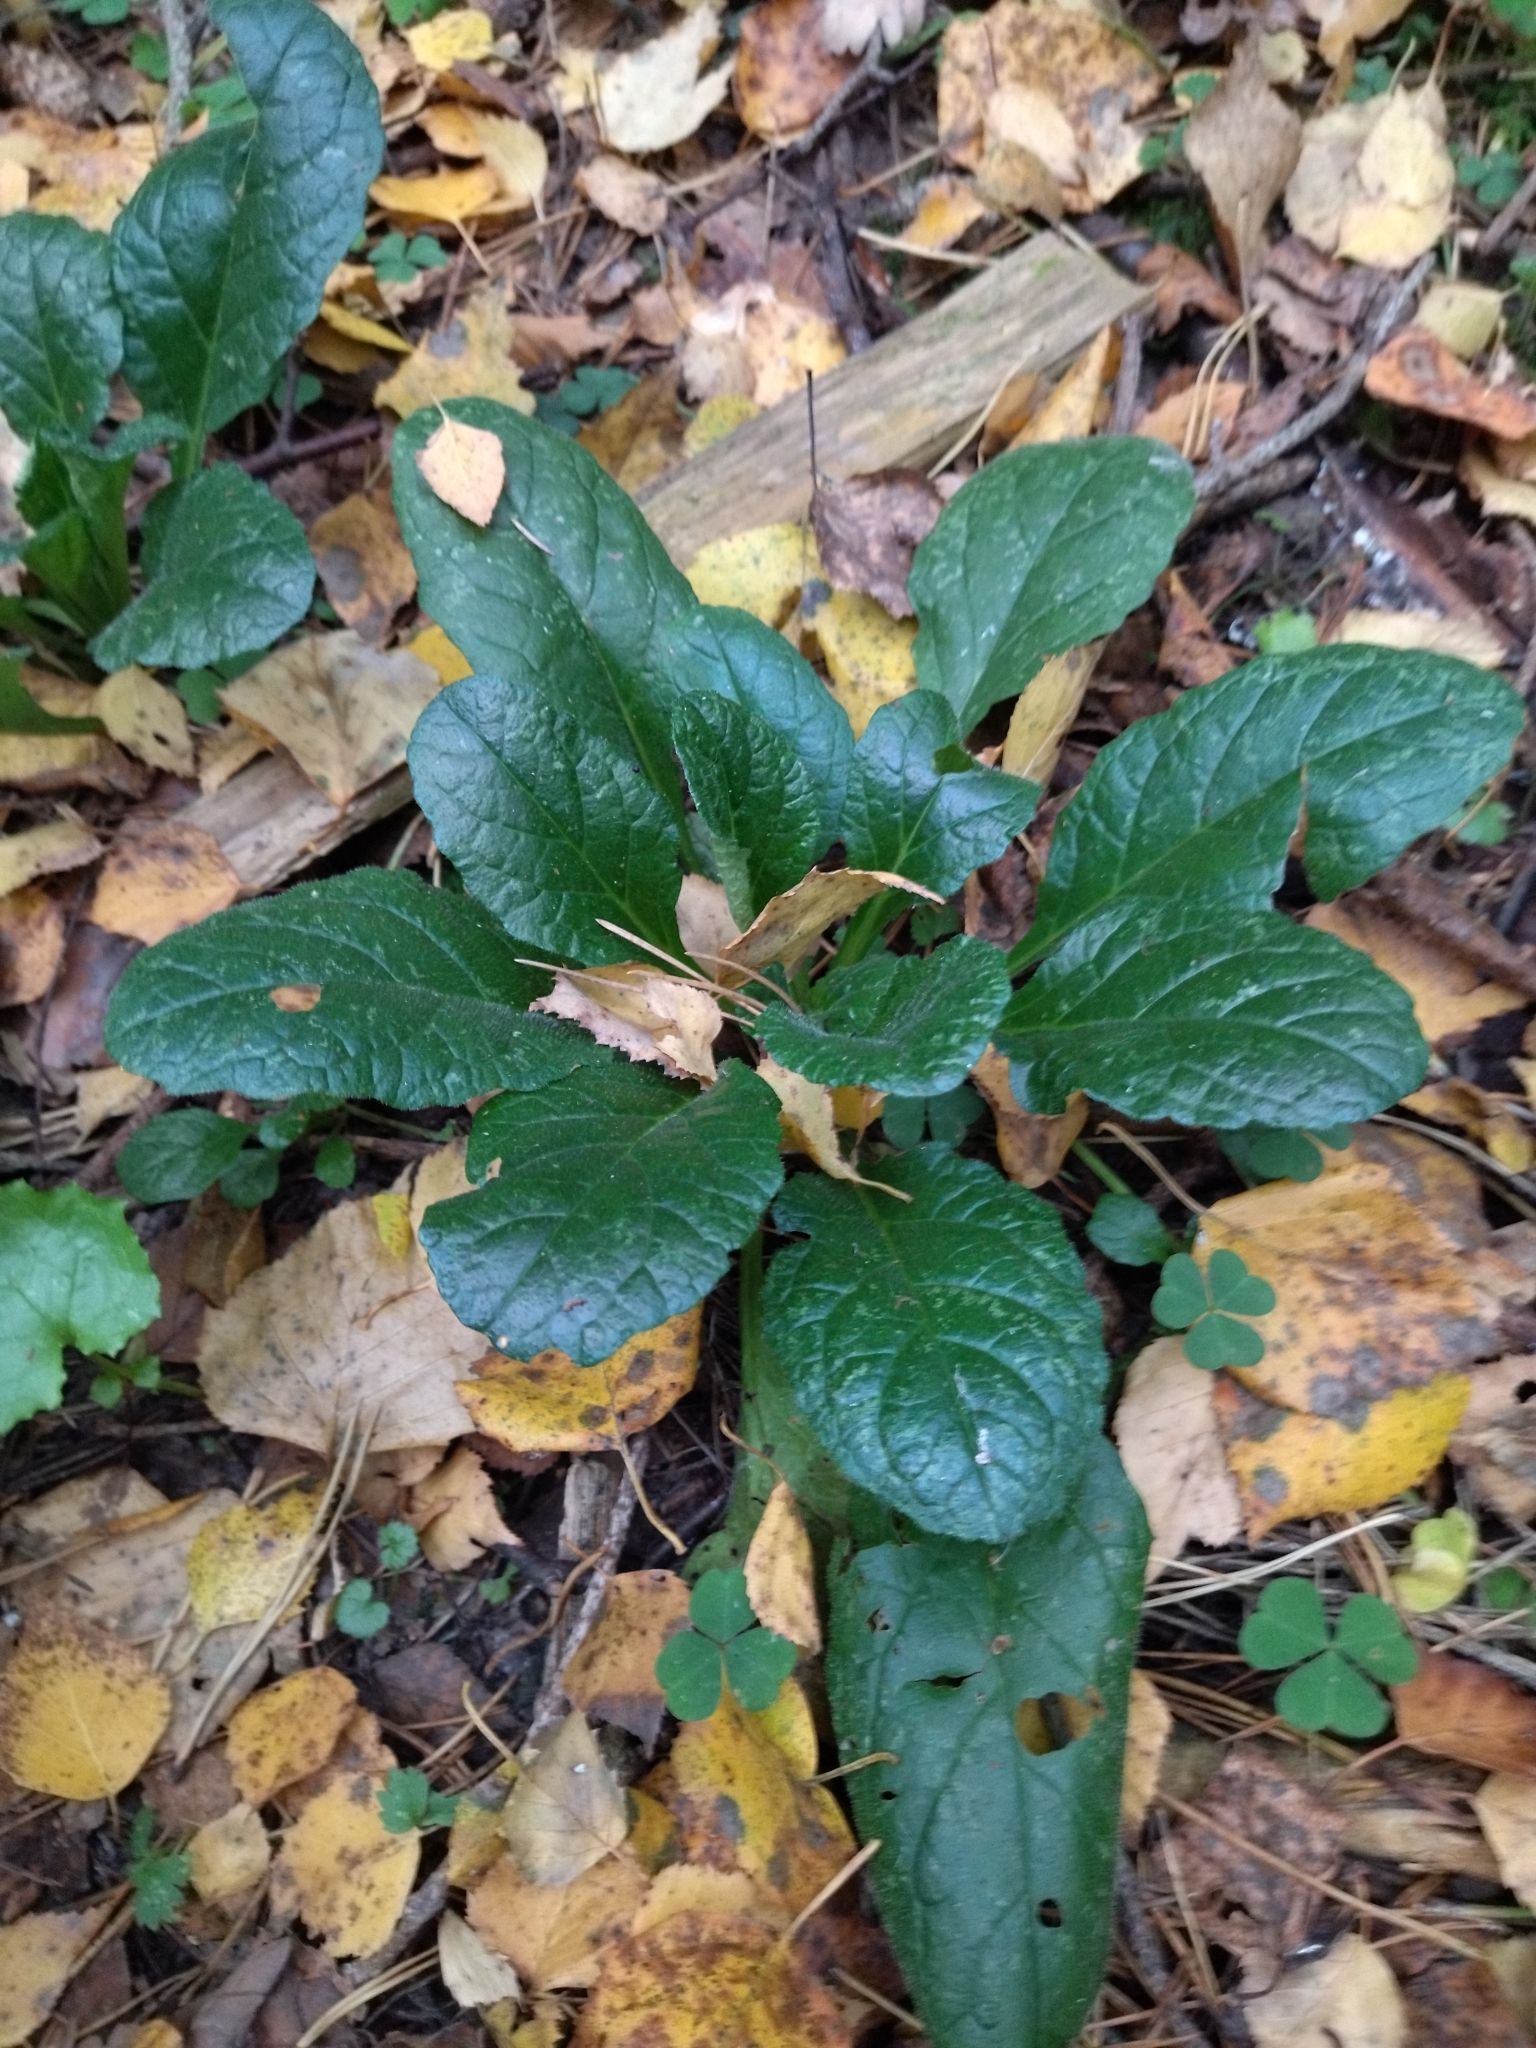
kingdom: Plantae
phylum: Tracheophyta
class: Magnoliopsida
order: Lamiales
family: Lamiaceae
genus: Ajuga
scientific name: Ajuga reptans
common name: Bugle
